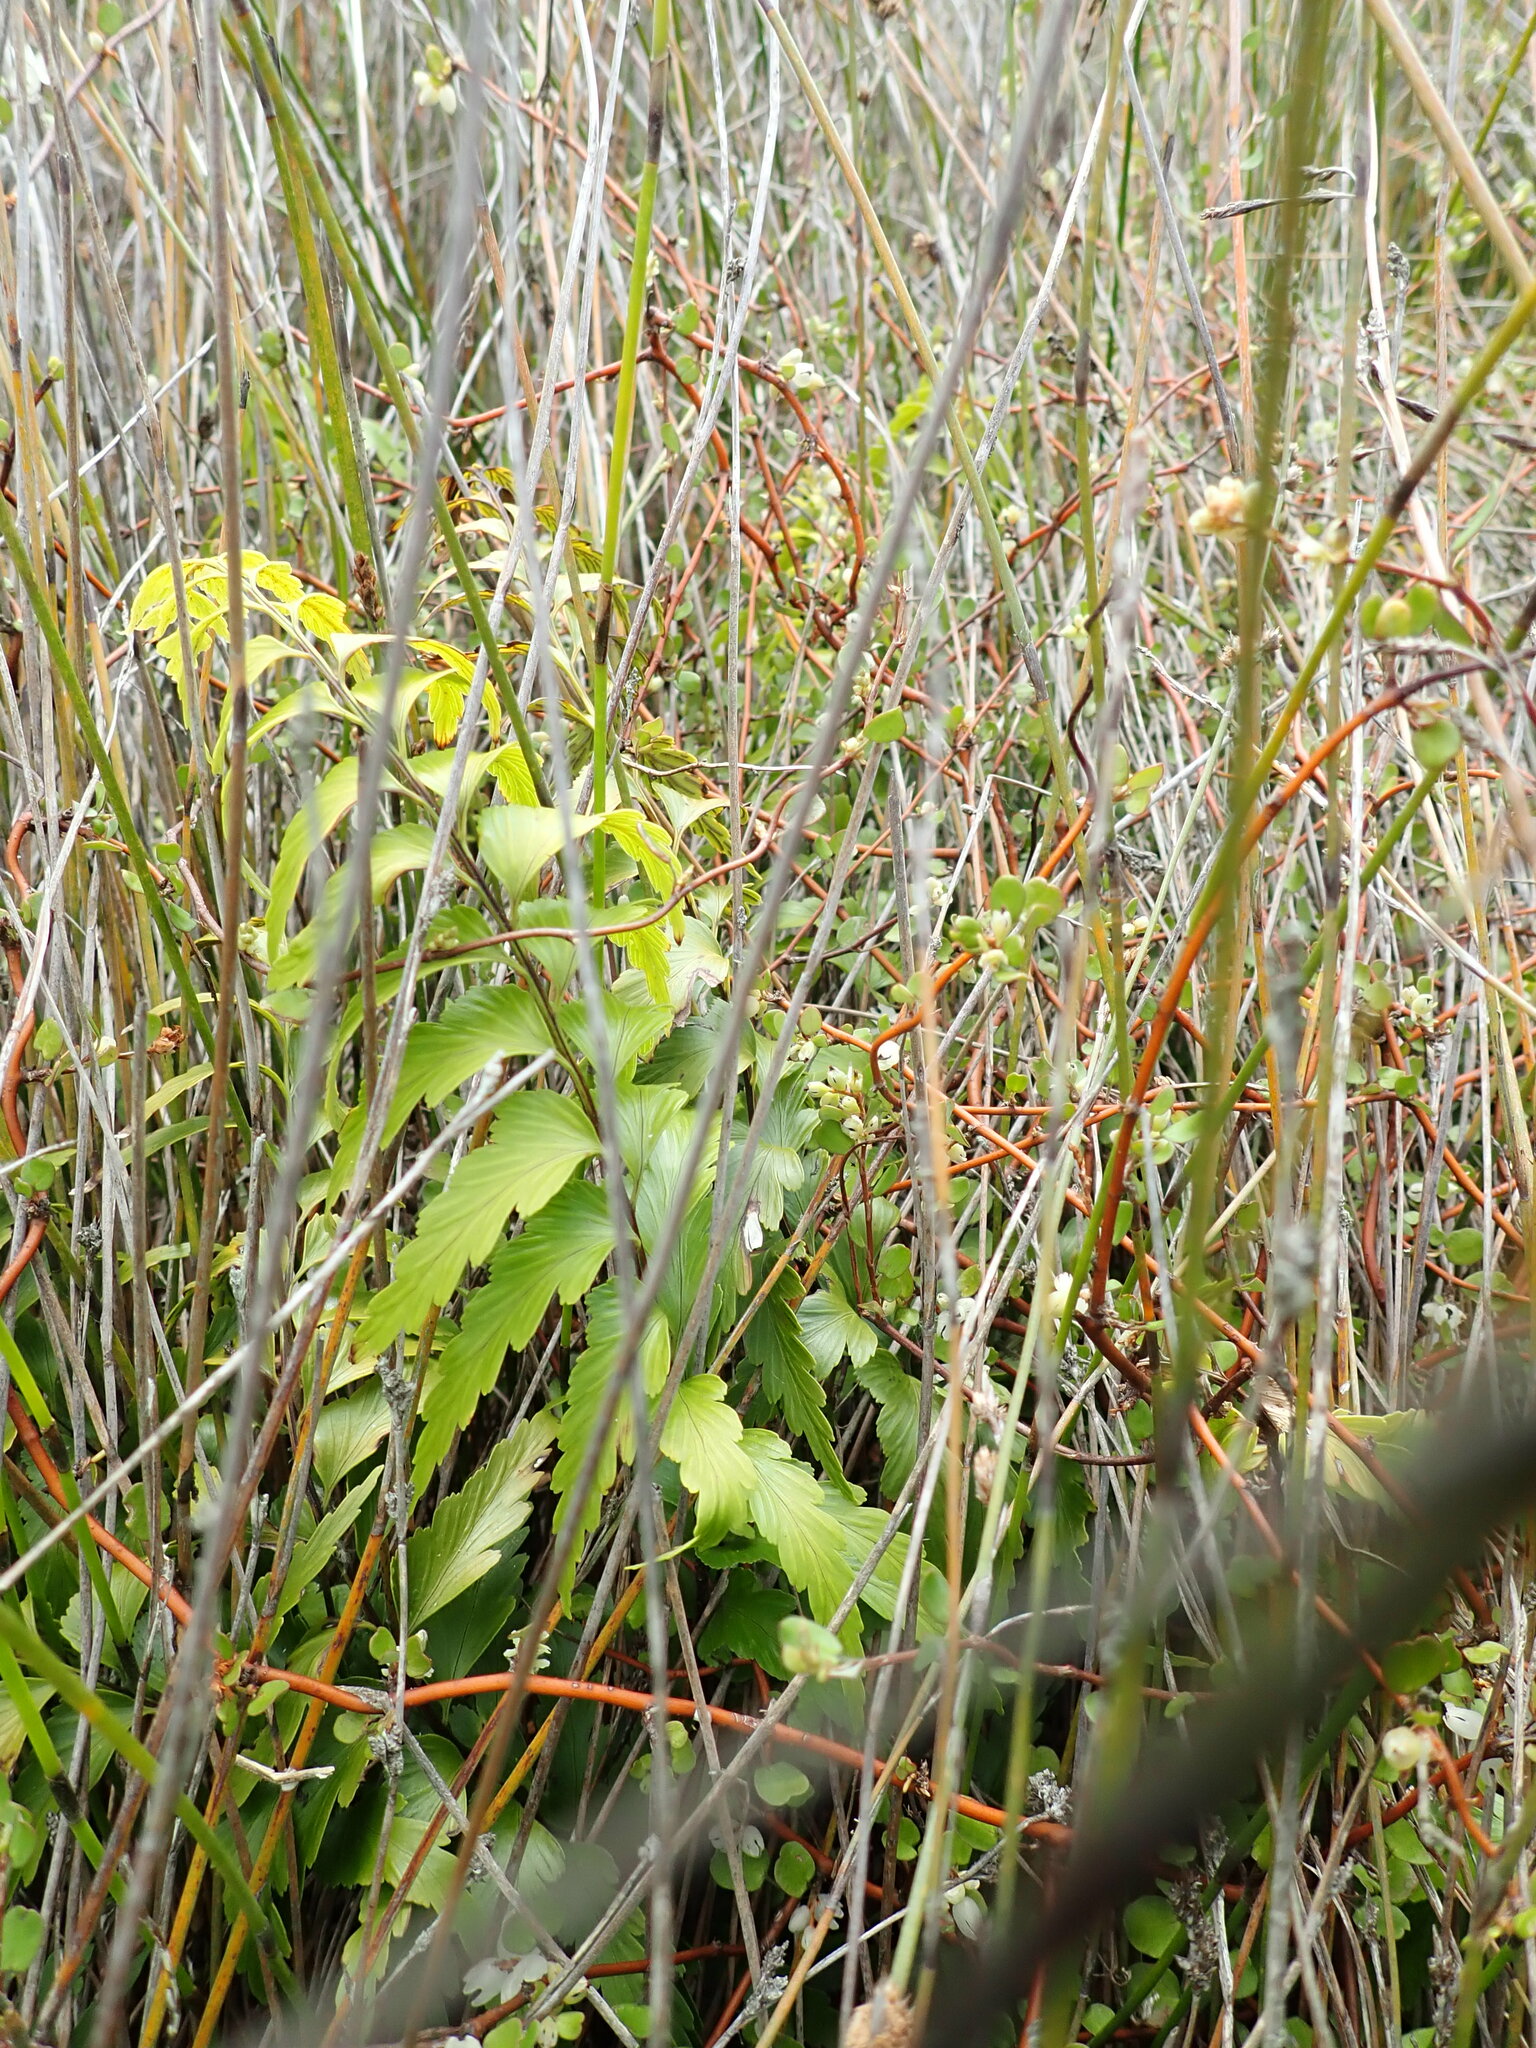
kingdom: Plantae
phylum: Tracheophyta
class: Polypodiopsida
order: Polypodiales
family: Aspleniaceae
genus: Asplenium
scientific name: Asplenium polyodon
